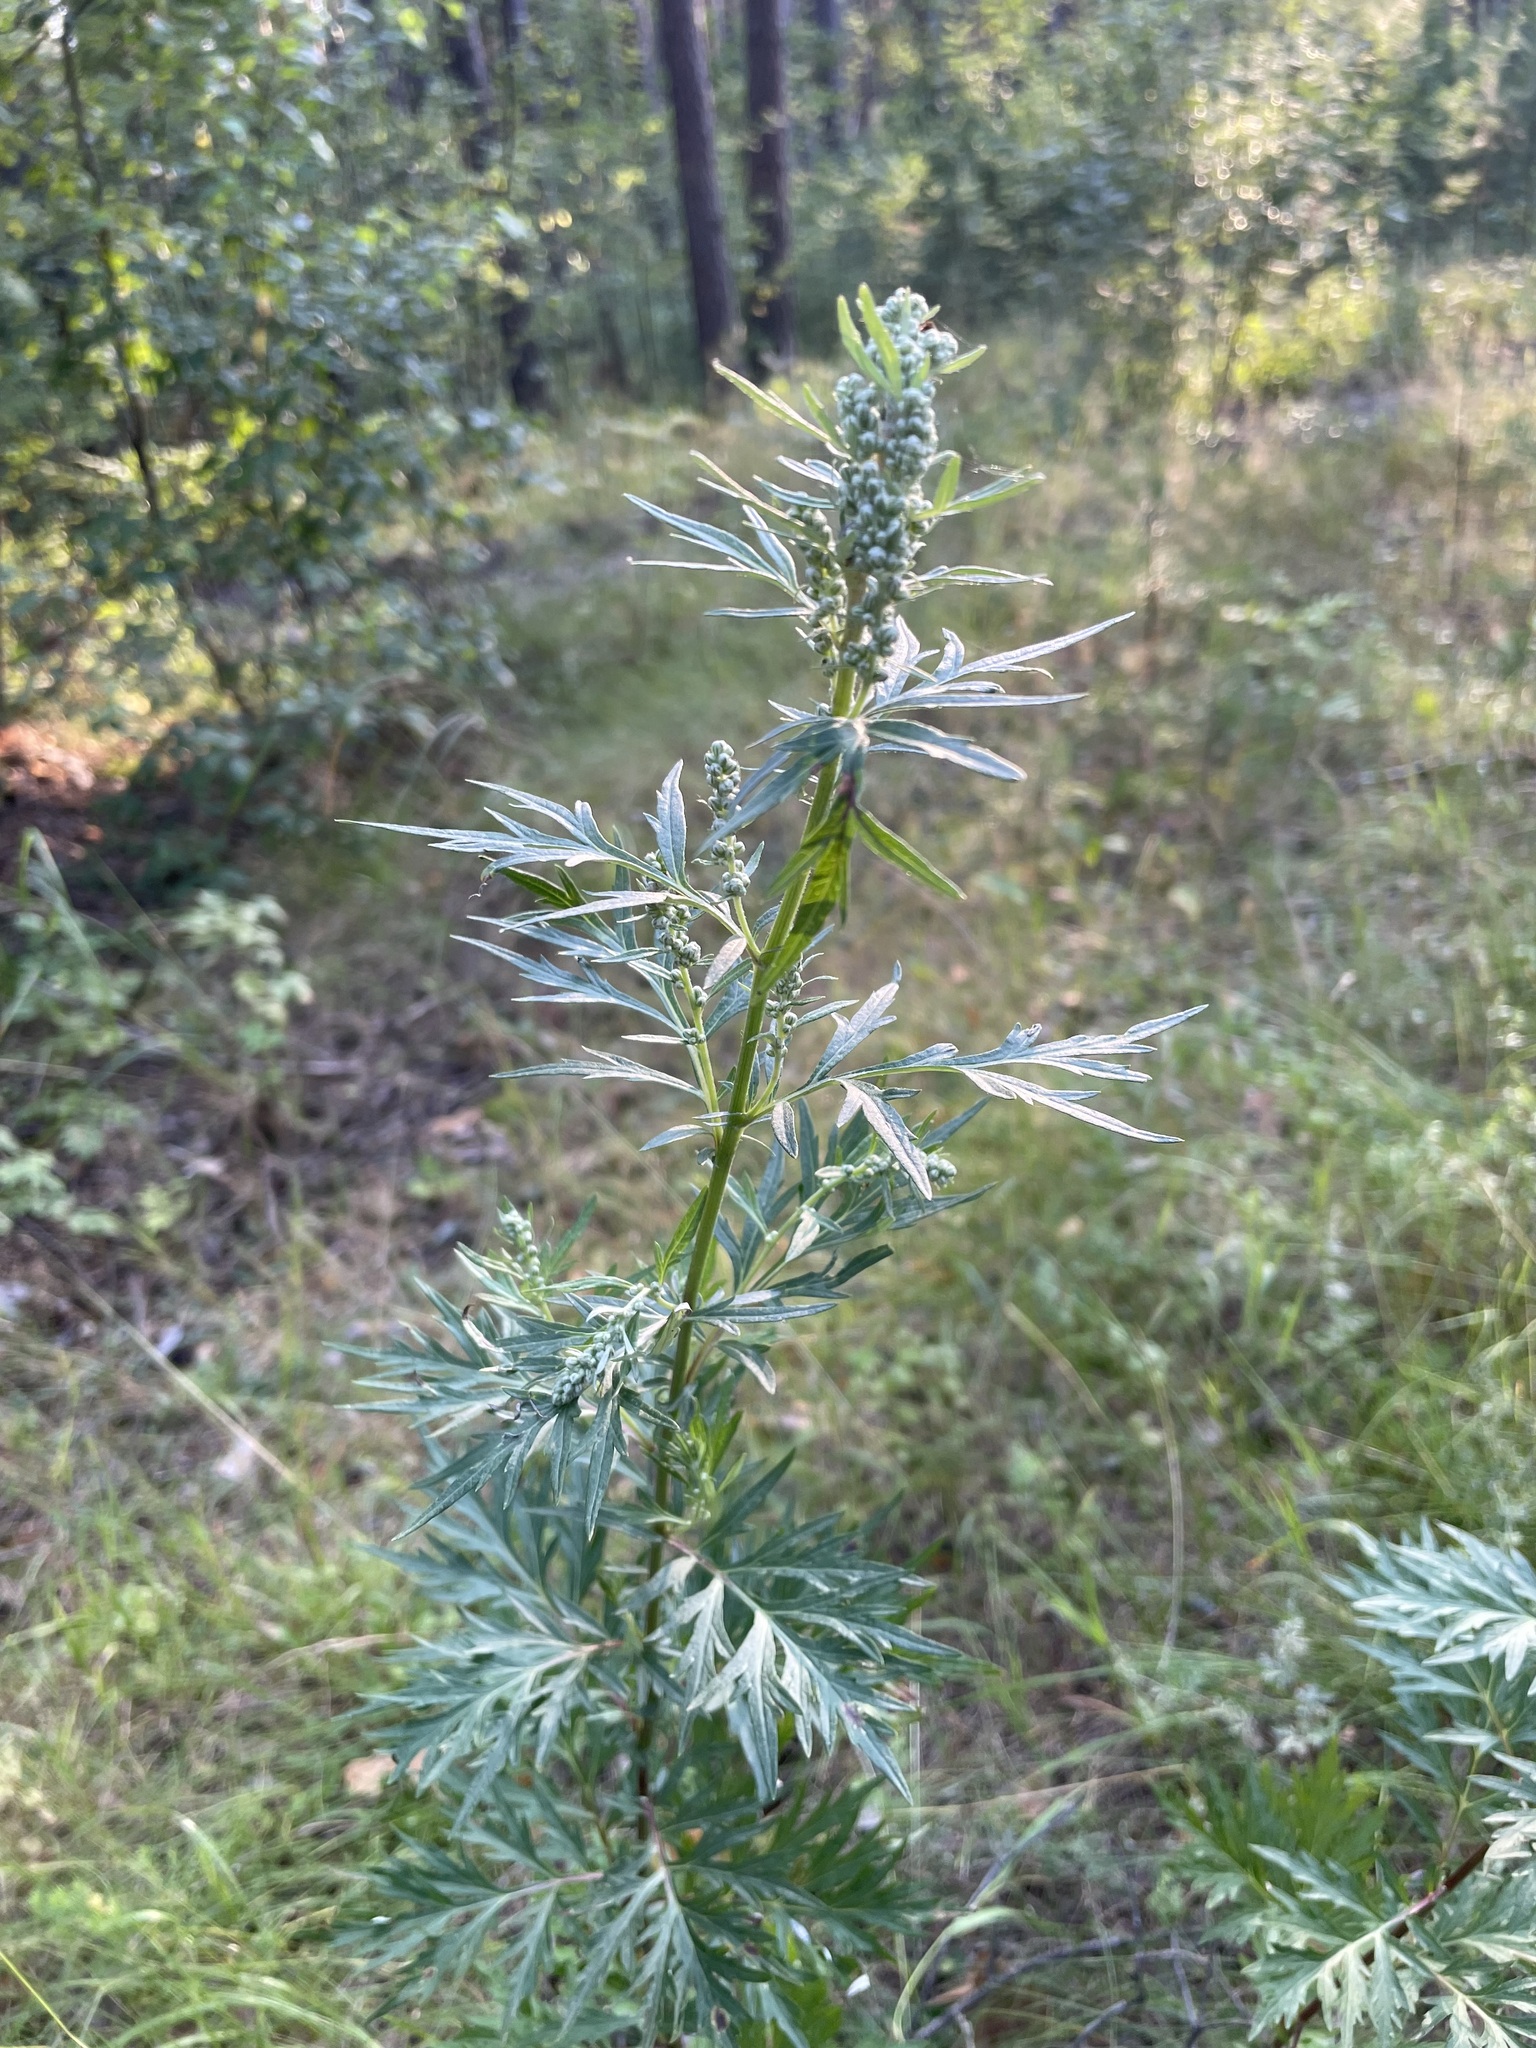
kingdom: Plantae
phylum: Tracheophyta
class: Magnoliopsida
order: Asterales
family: Asteraceae
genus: Artemisia
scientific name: Artemisia vulgaris
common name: Mugwort
